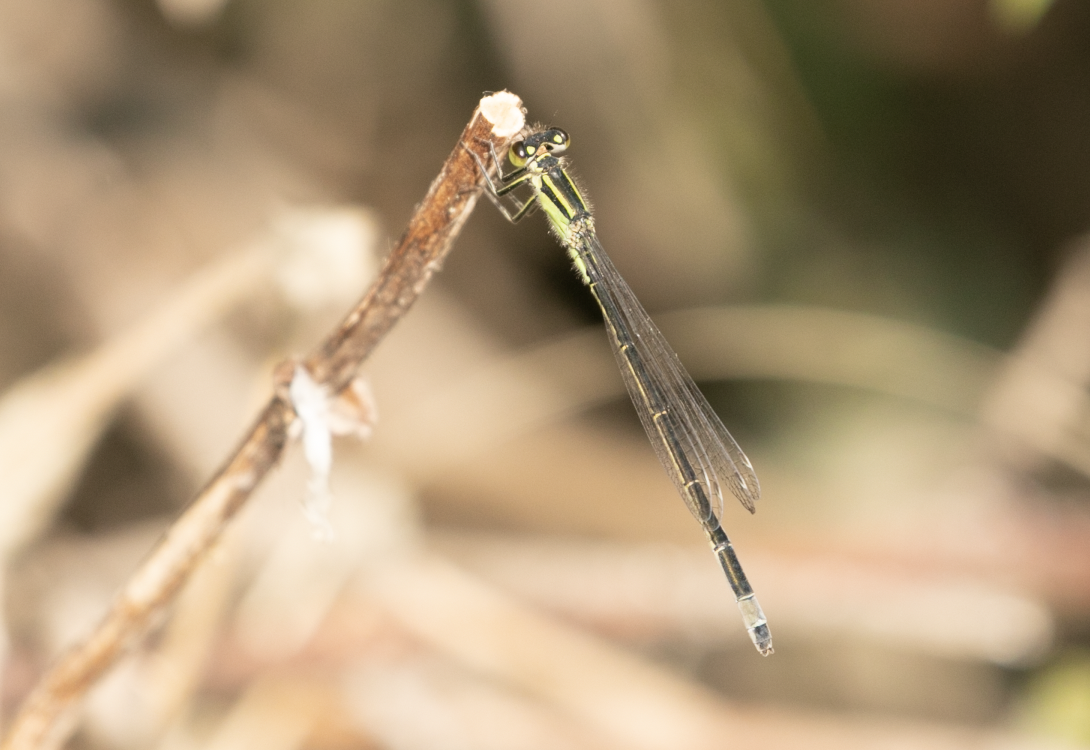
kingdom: Animalia
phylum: Arthropoda
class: Insecta
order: Odonata
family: Coenagrionidae
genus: Ischnura
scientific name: Ischnura elegans
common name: Blue-tailed damselfly
